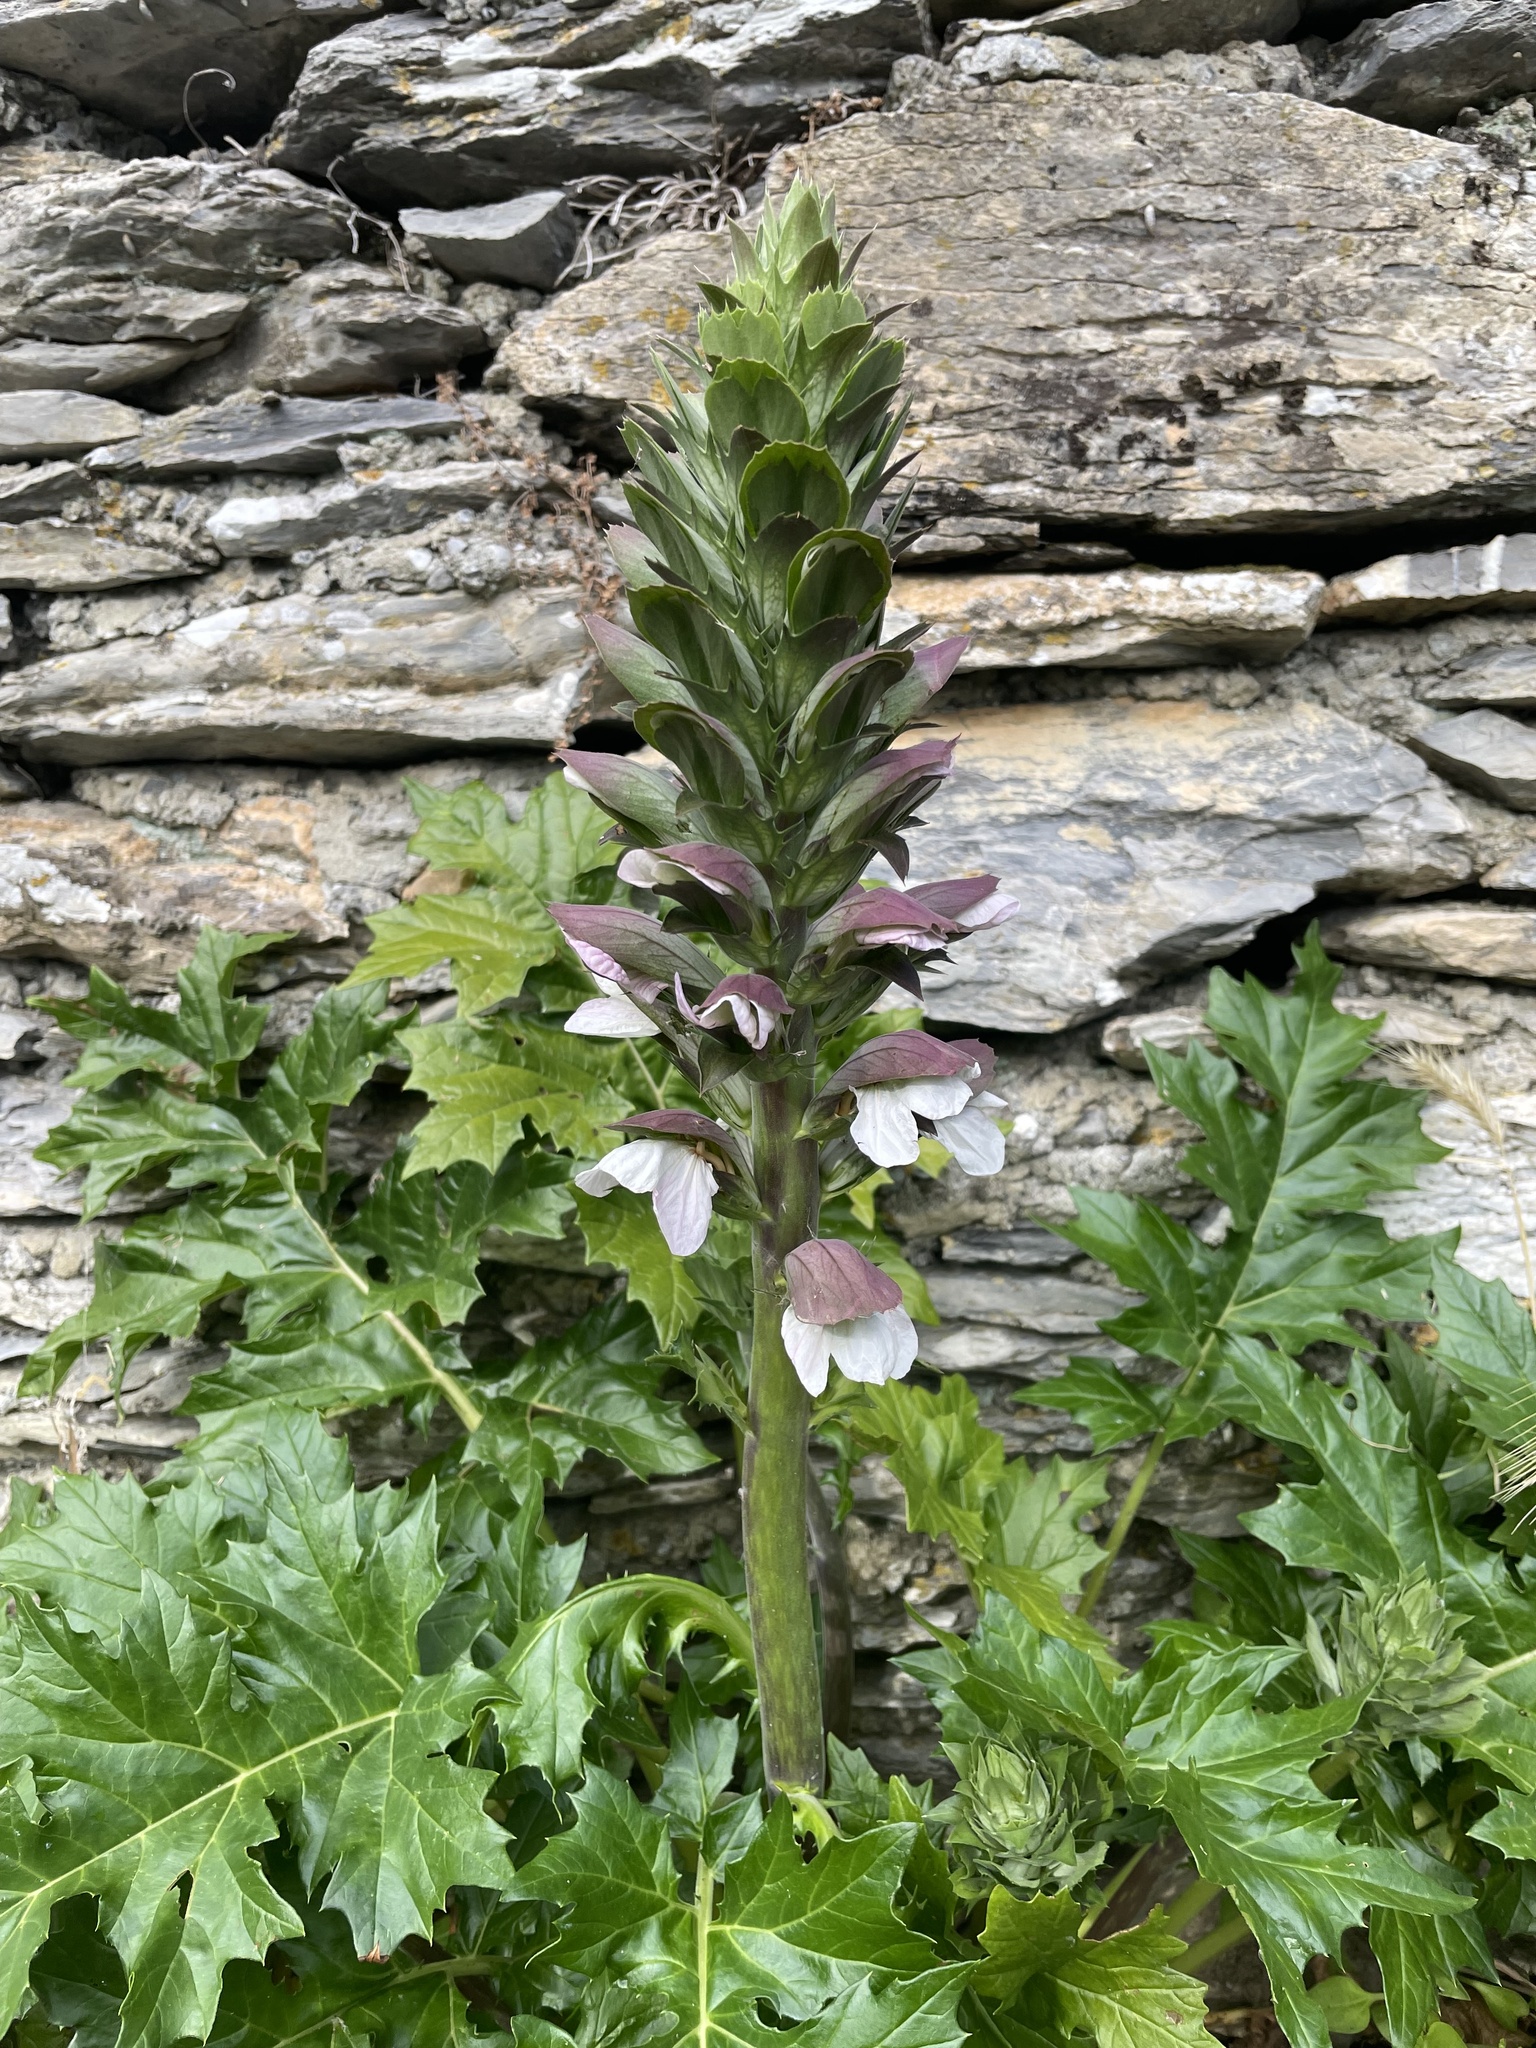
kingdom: Plantae
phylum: Tracheophyta
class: Magnoliopsida
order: Lamiales
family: Acanthaceae
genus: Acanthus
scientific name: Acanthus mollis
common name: Bear's-breech
